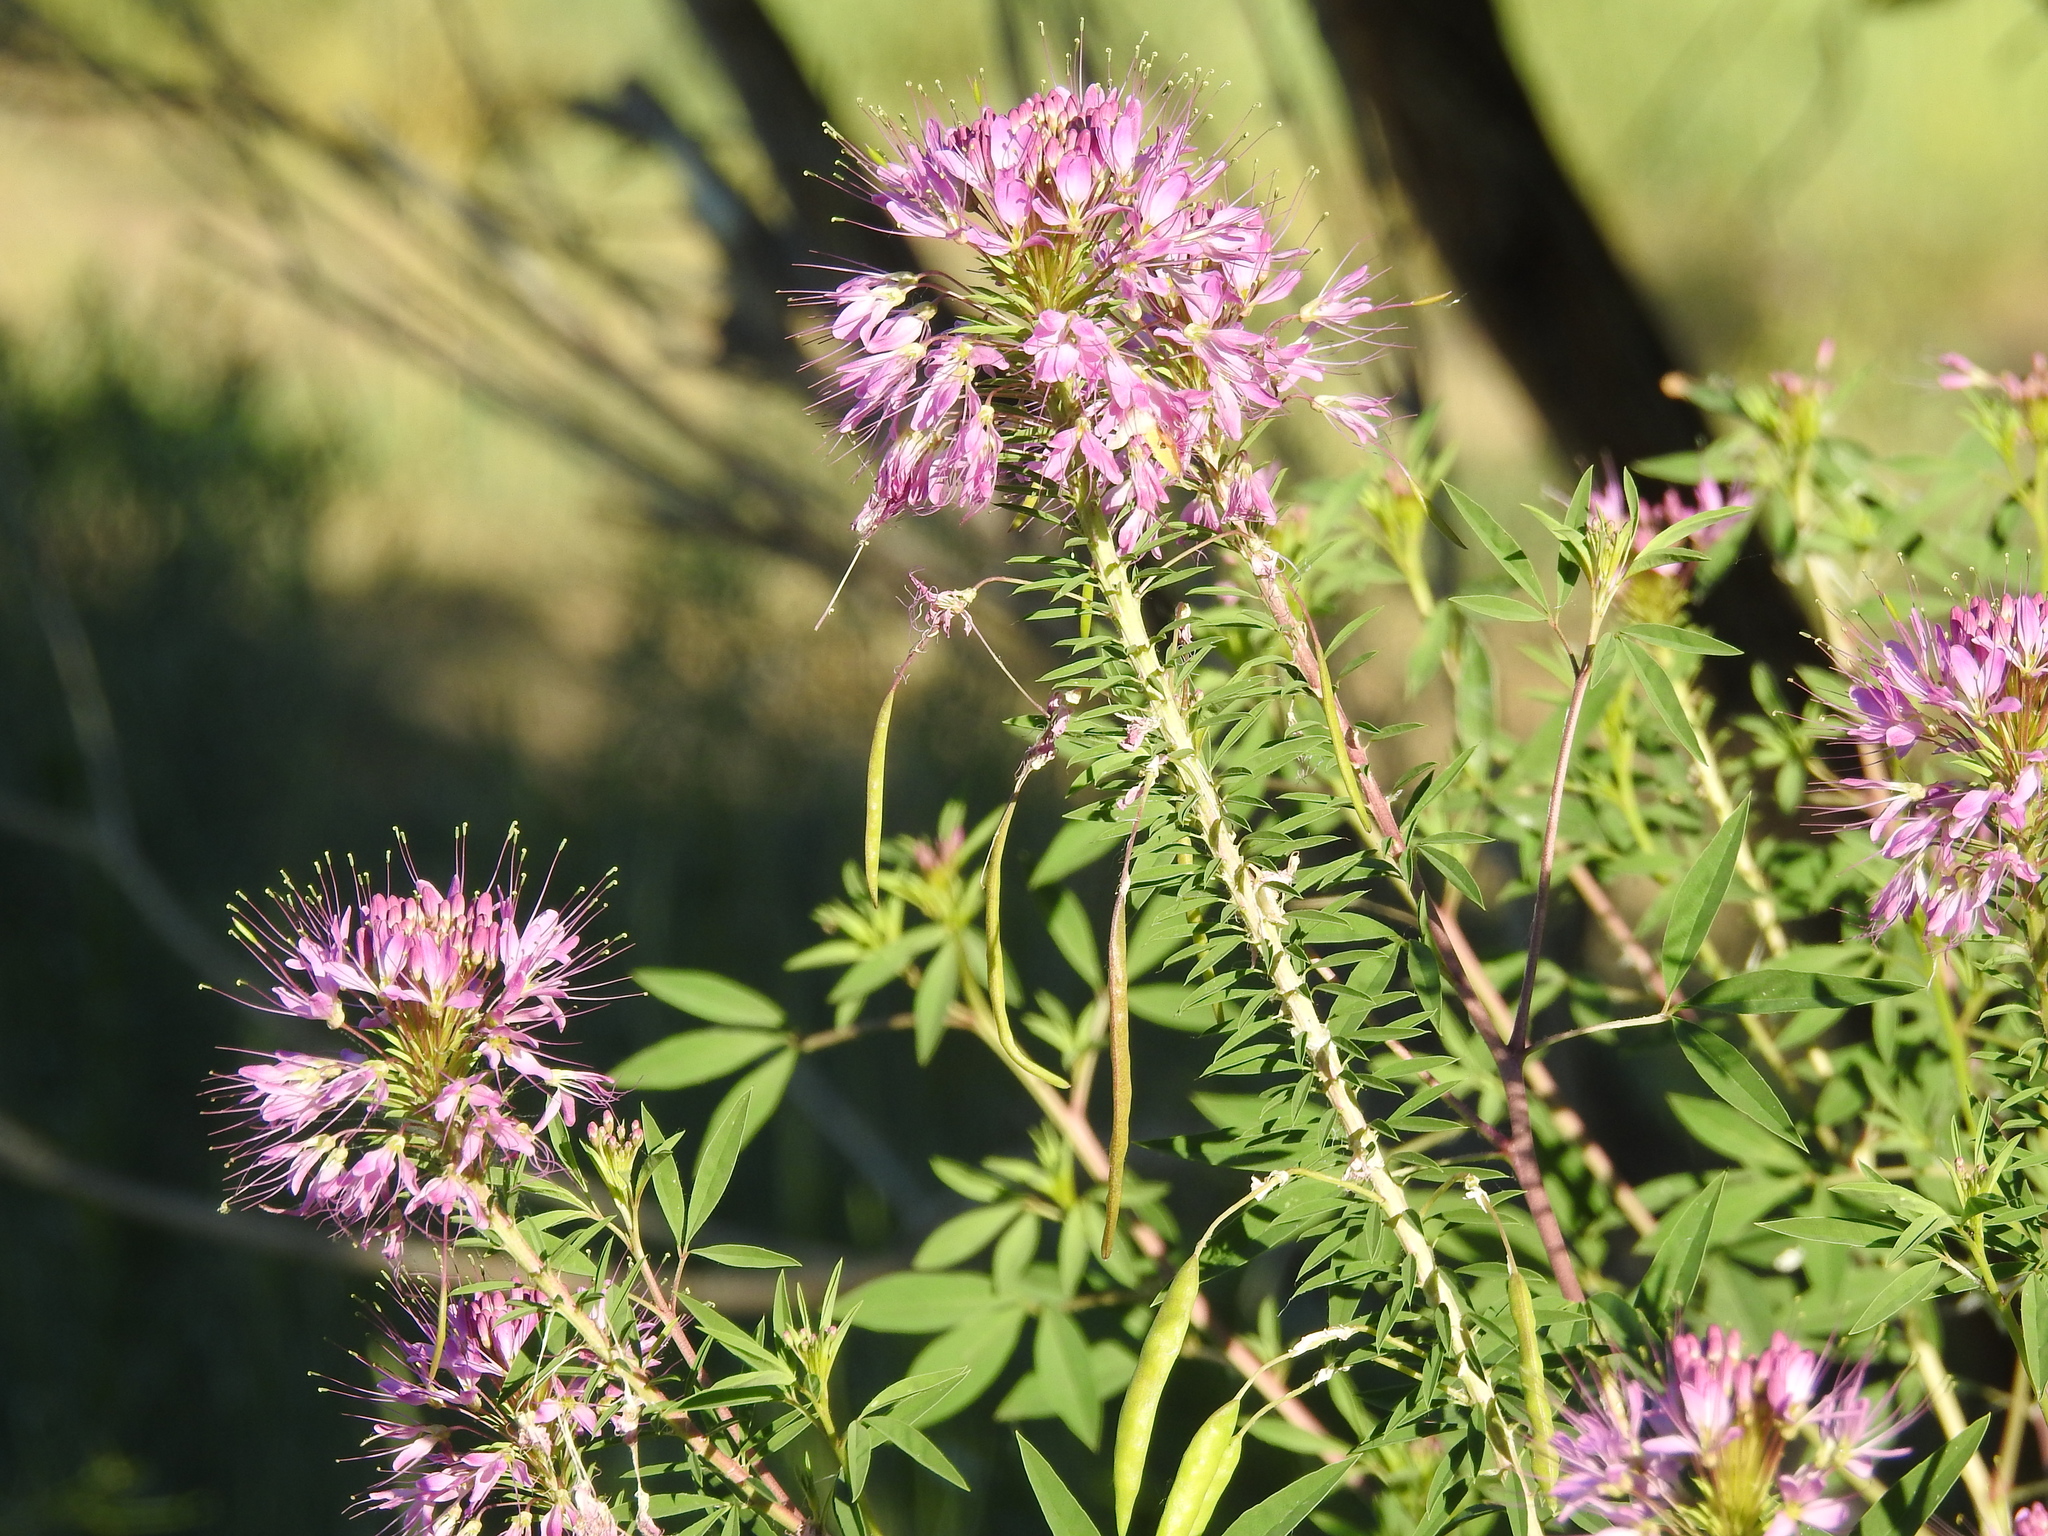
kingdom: Plantae
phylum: Tracheophyta
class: Magnoliopsida
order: Brassicales
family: Cleomaceae
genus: Cleomella
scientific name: Cleomella serrulata
